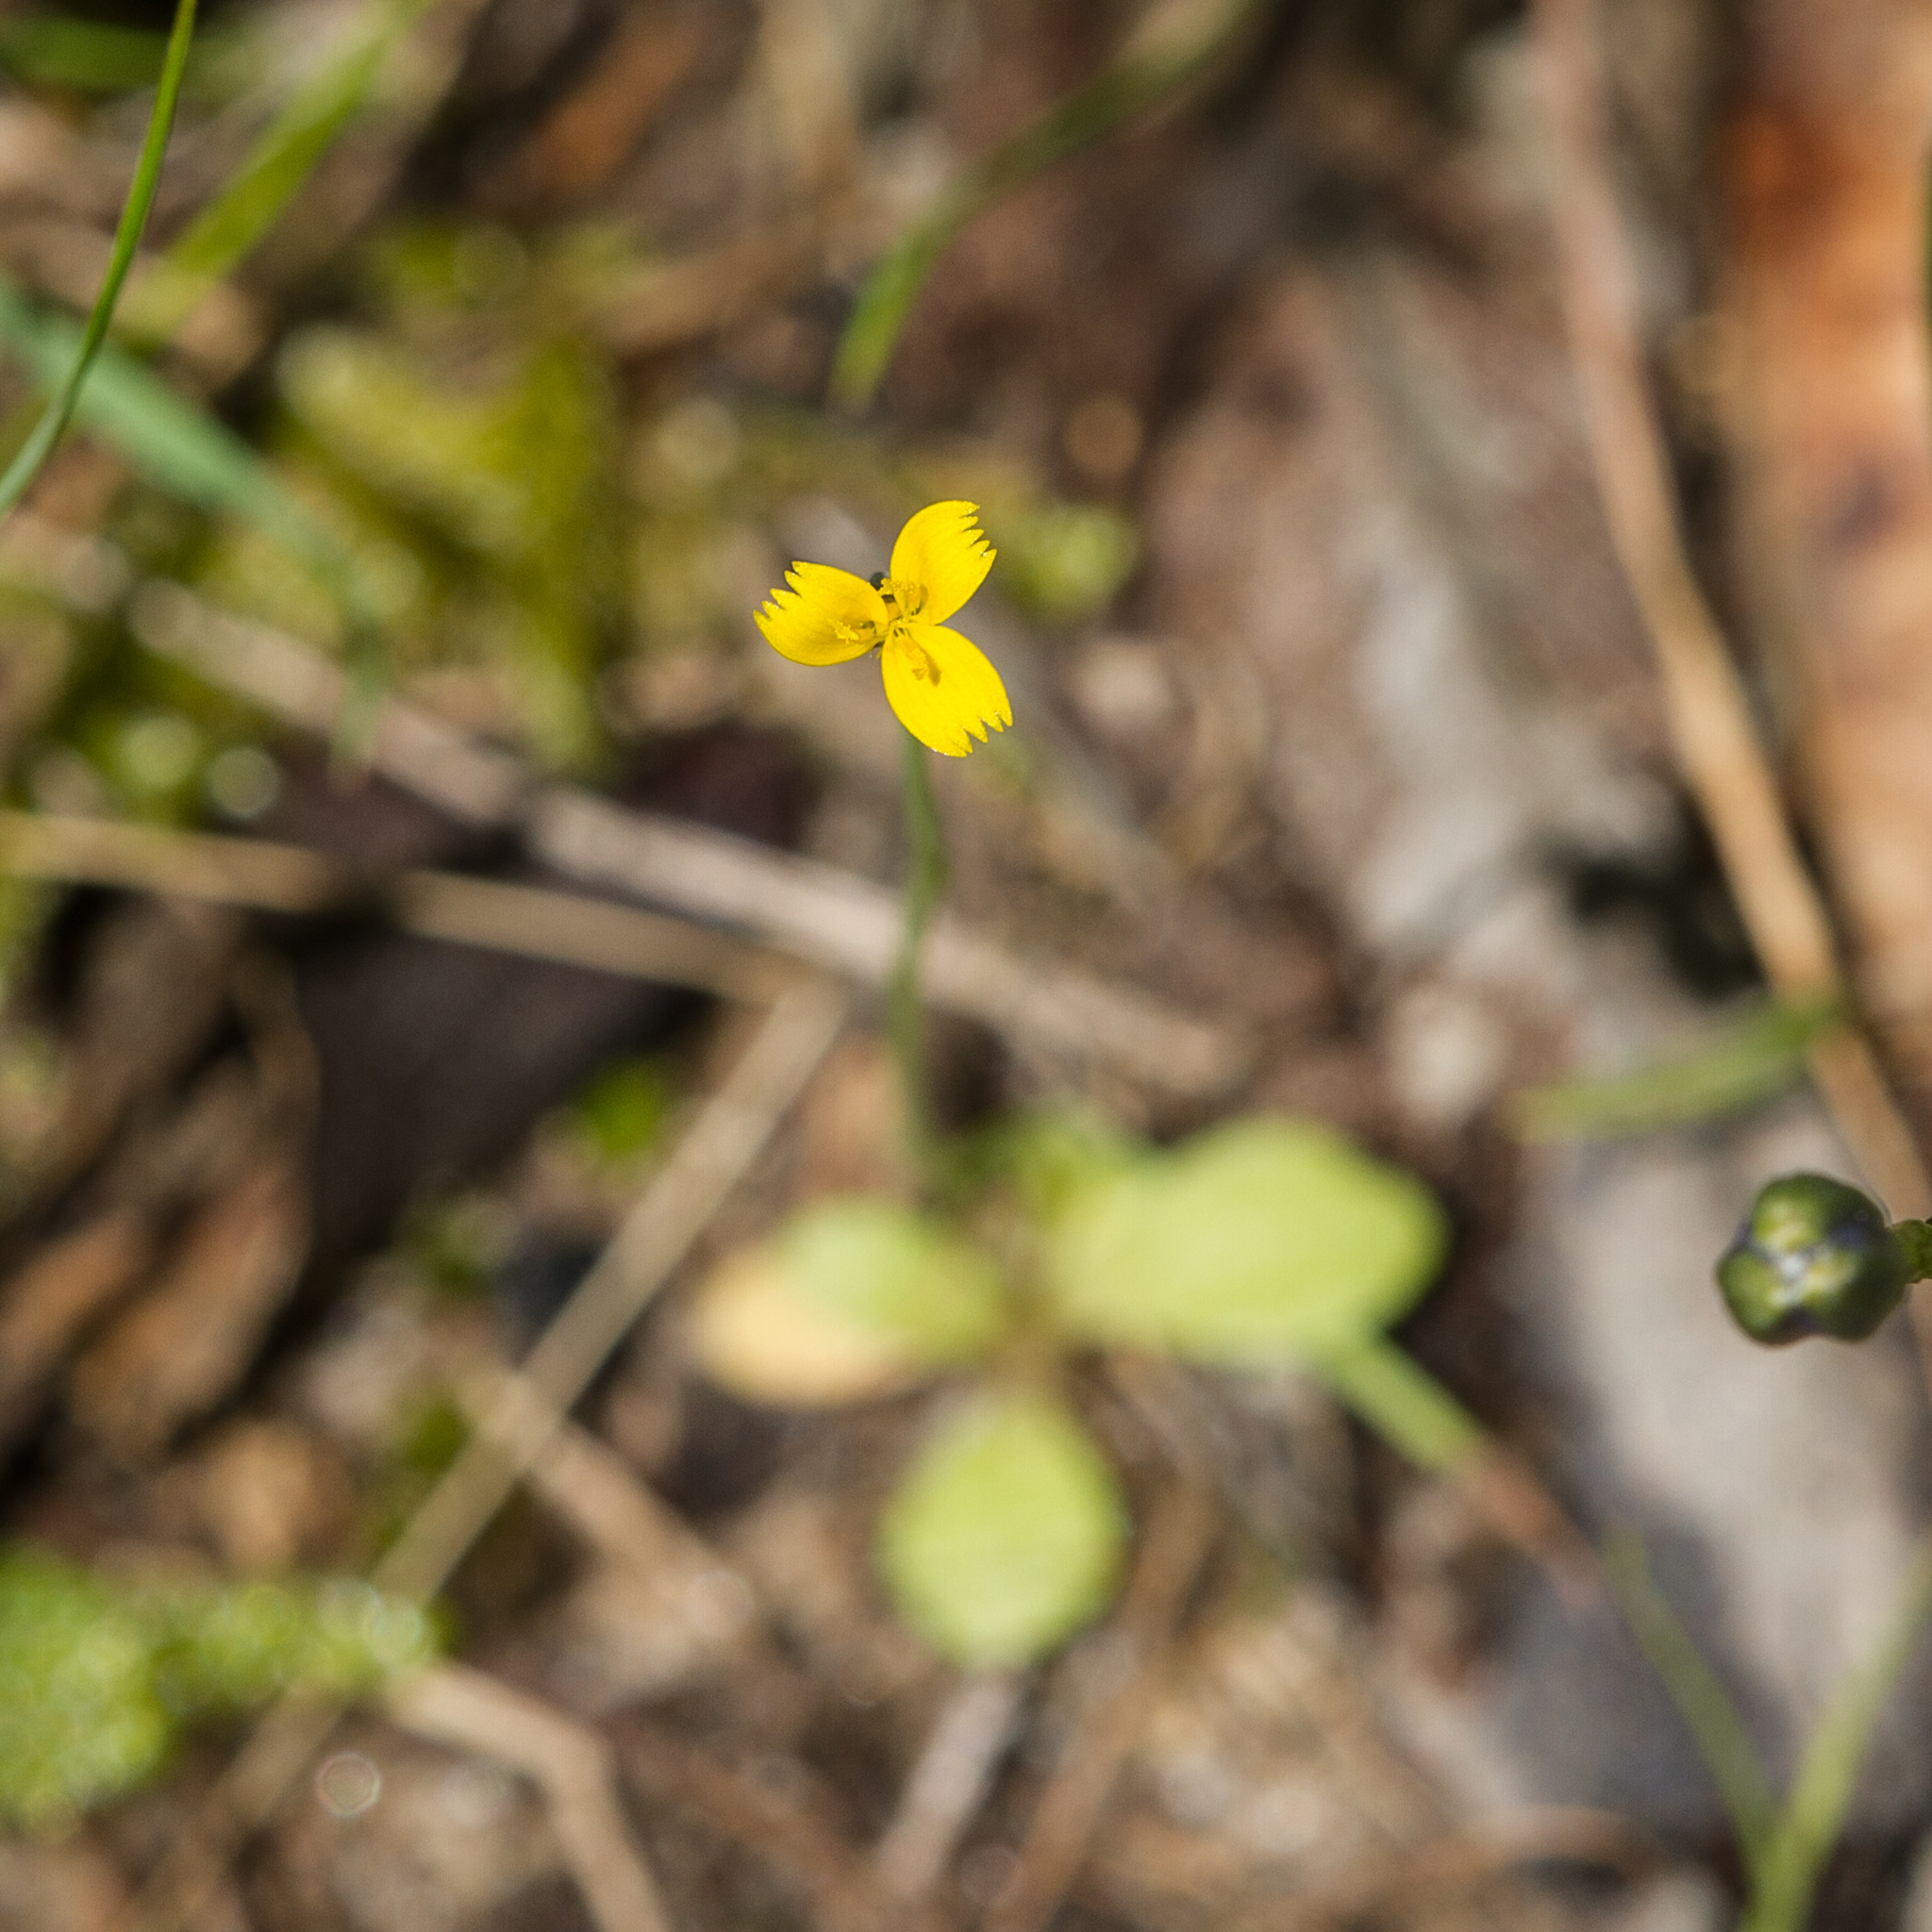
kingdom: Plantae
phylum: Tracheophyta
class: Magnoliopsida
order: Asterales
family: Asteraceae
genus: Hypochaeris
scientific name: Hypochaeris glabra
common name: Smooth catsear
